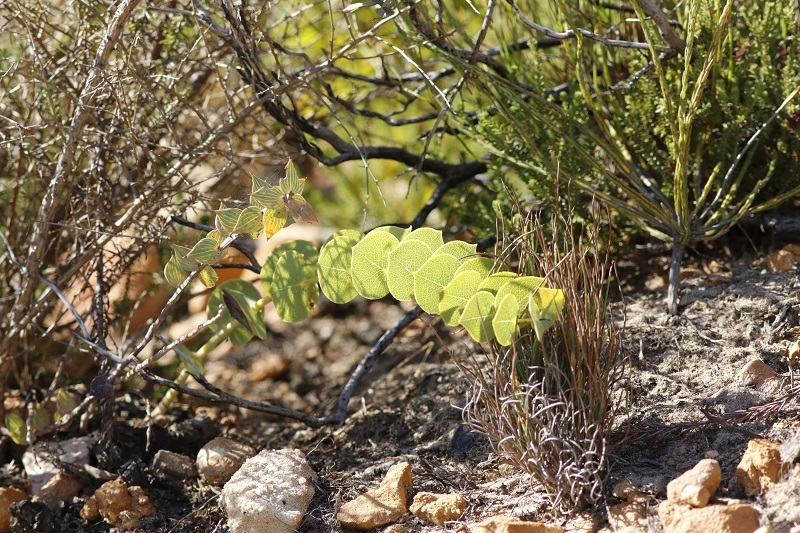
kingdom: Plantae
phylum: Tracheophyta
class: Magnoliopsida
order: Fabales
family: Fabaceae
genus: Rafnia
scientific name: Rafnia acuminata
